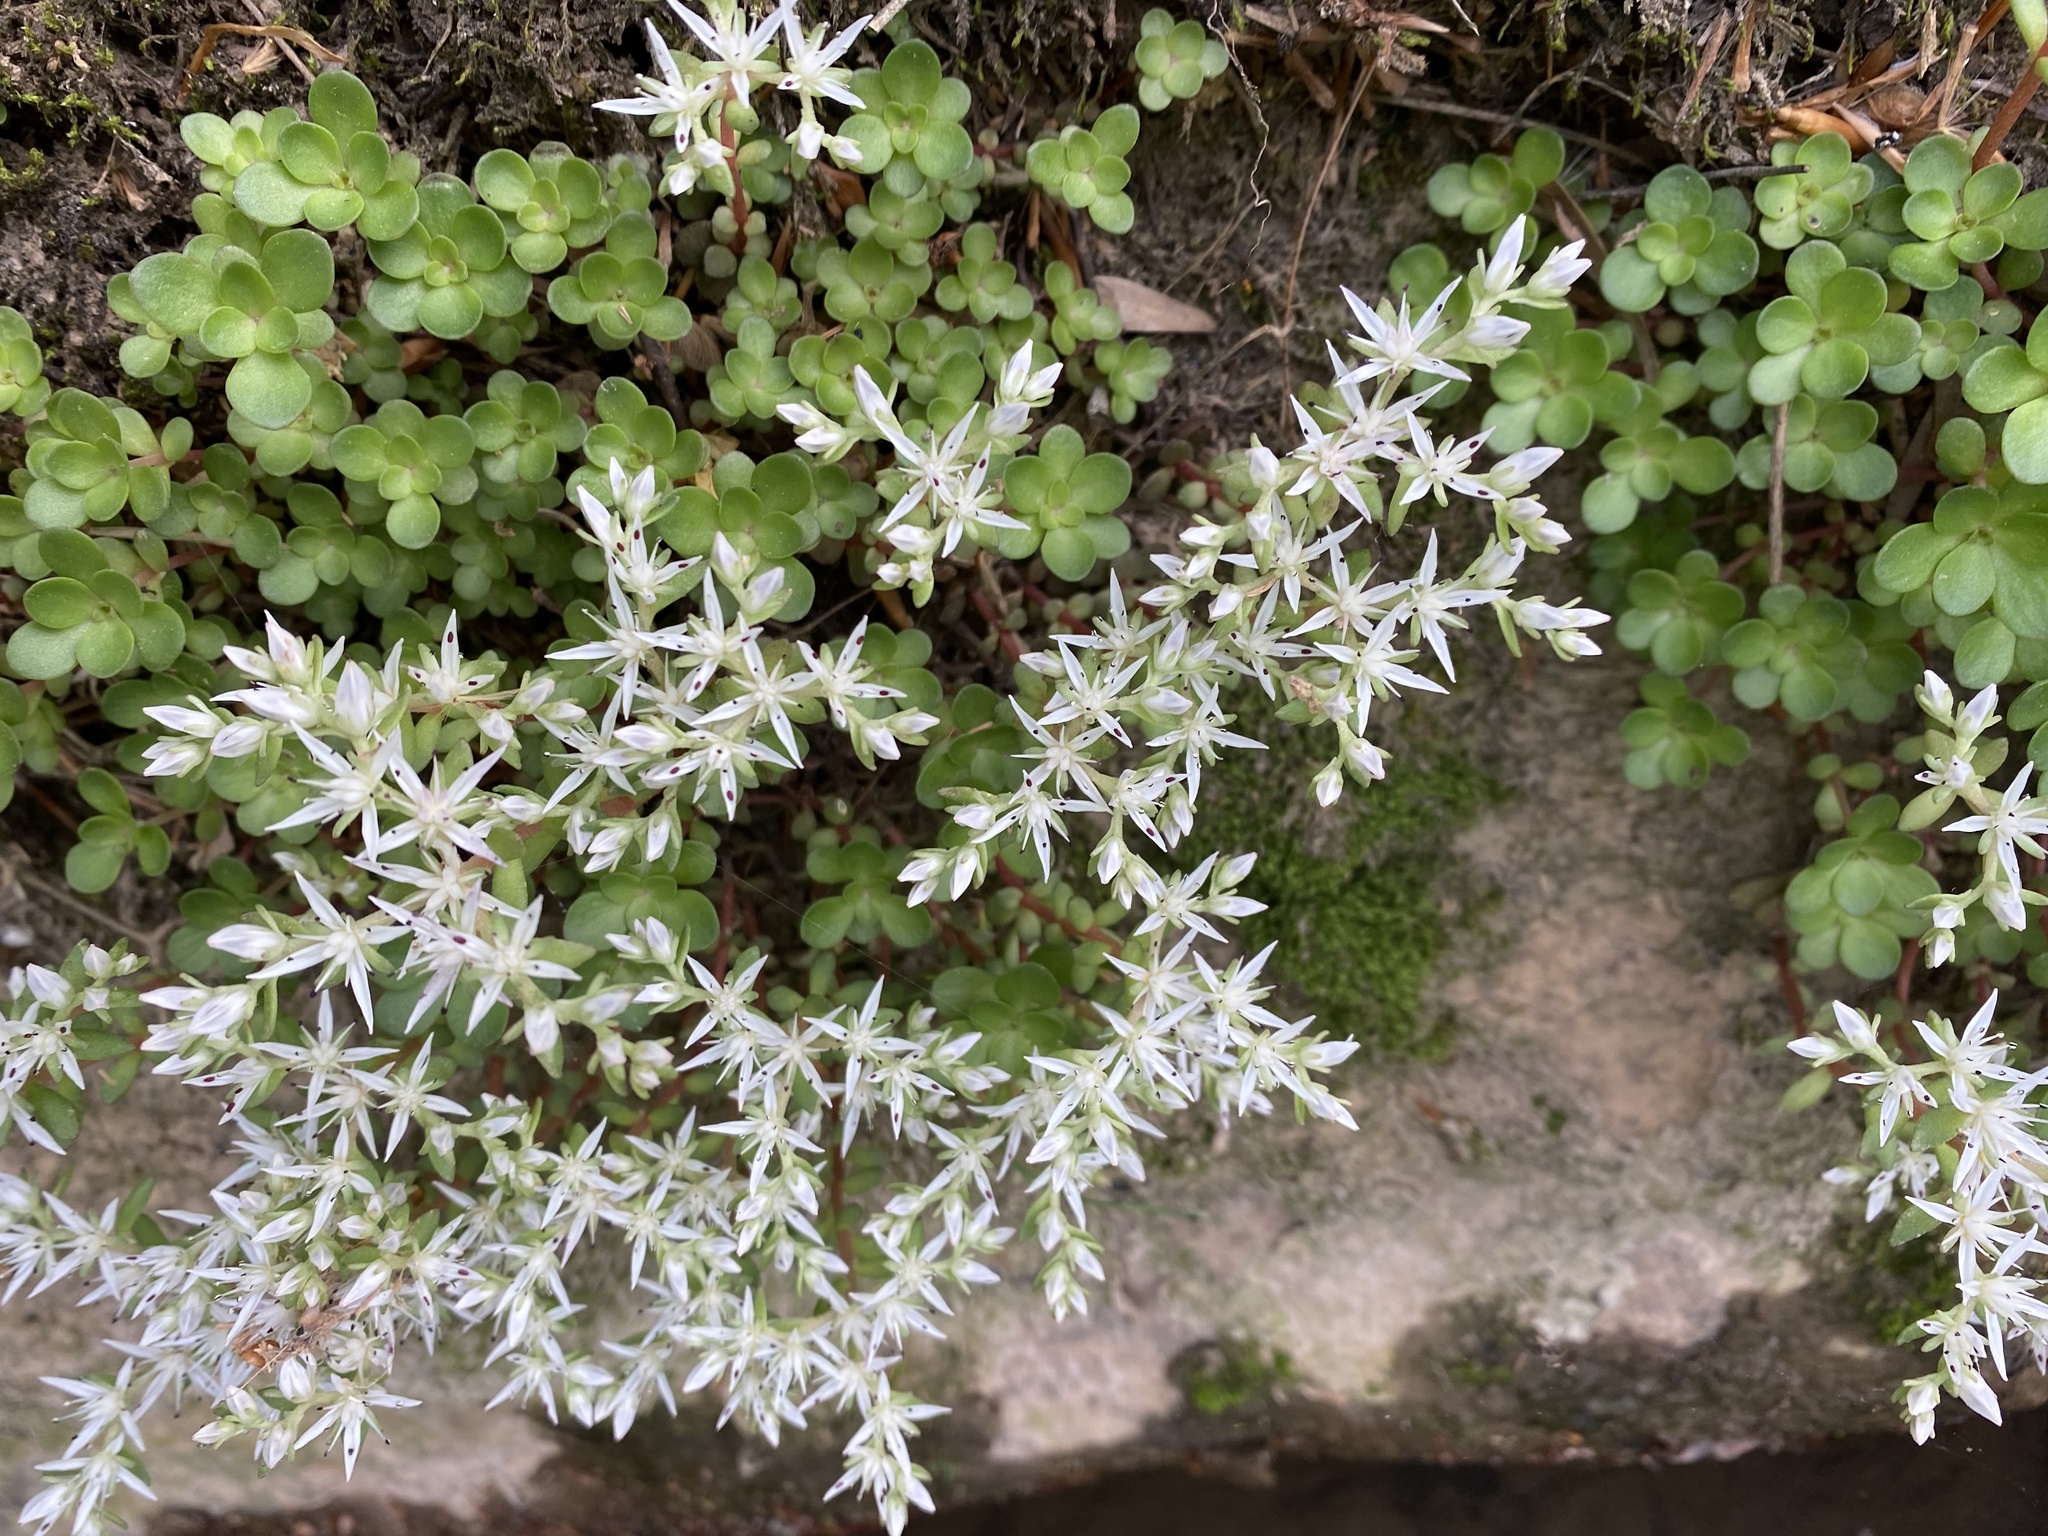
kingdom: Plantae
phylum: Tracheophyta
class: Magnoliopsida
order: Saxifragales
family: Crassulaceae
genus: Sedum
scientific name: Sedum ternatum
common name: Wild stonecrop
